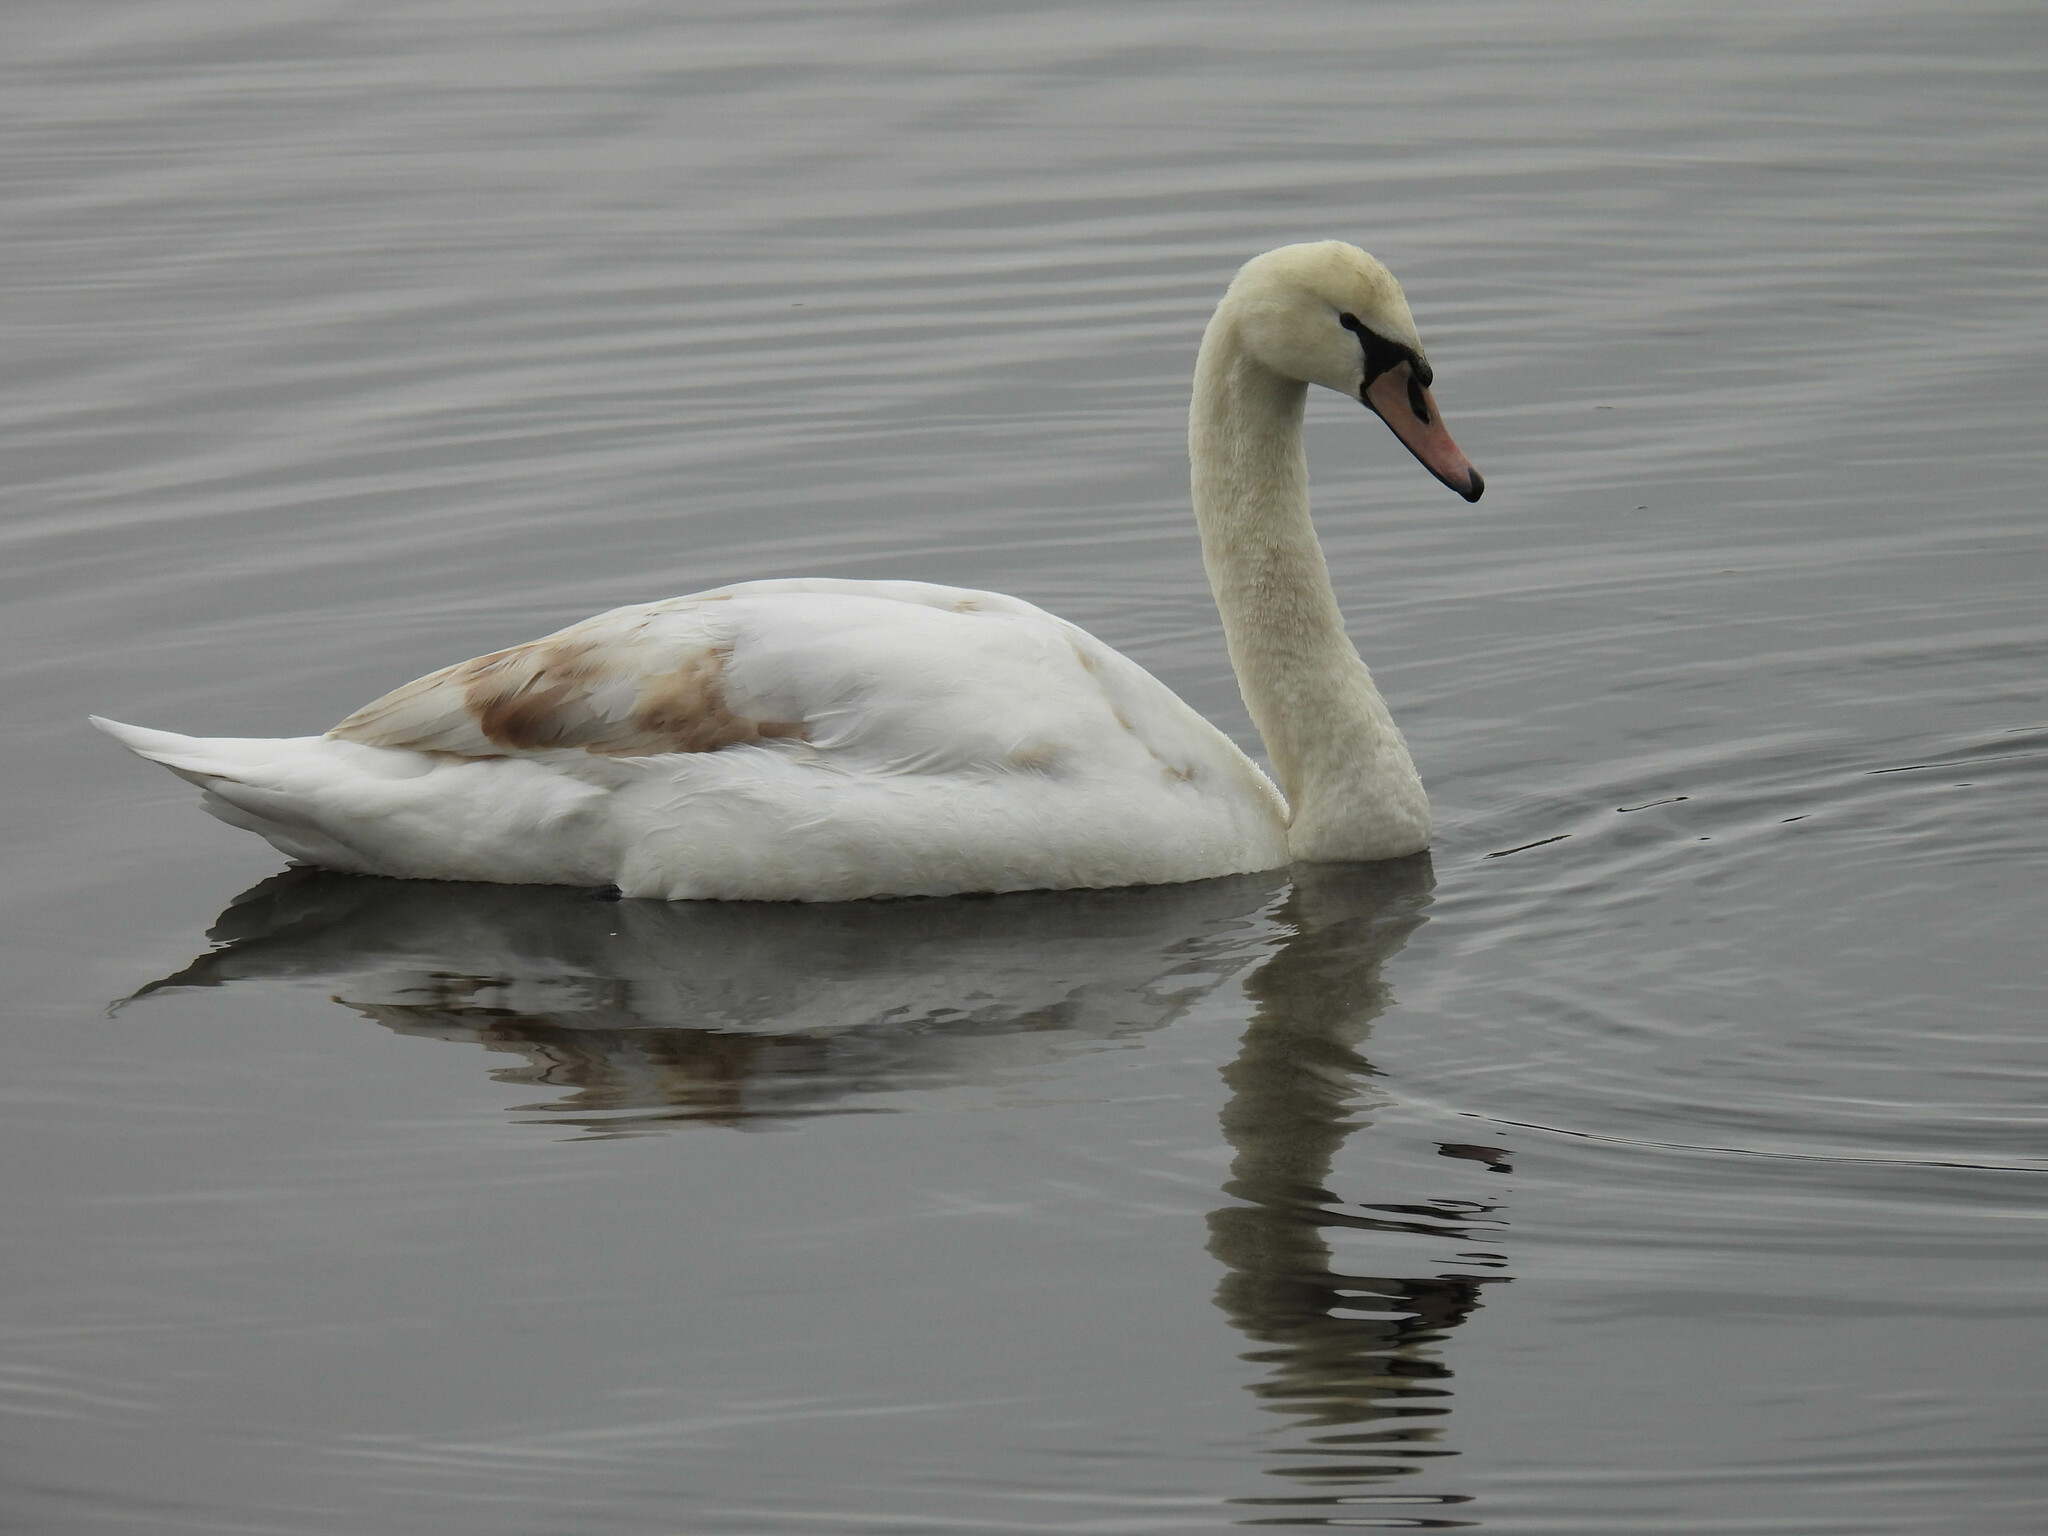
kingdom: Animalia
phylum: Chordata
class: Aves
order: Anseriformes
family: Anatidae
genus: Cygnus
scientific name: Cygnus olor
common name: Mute swan
